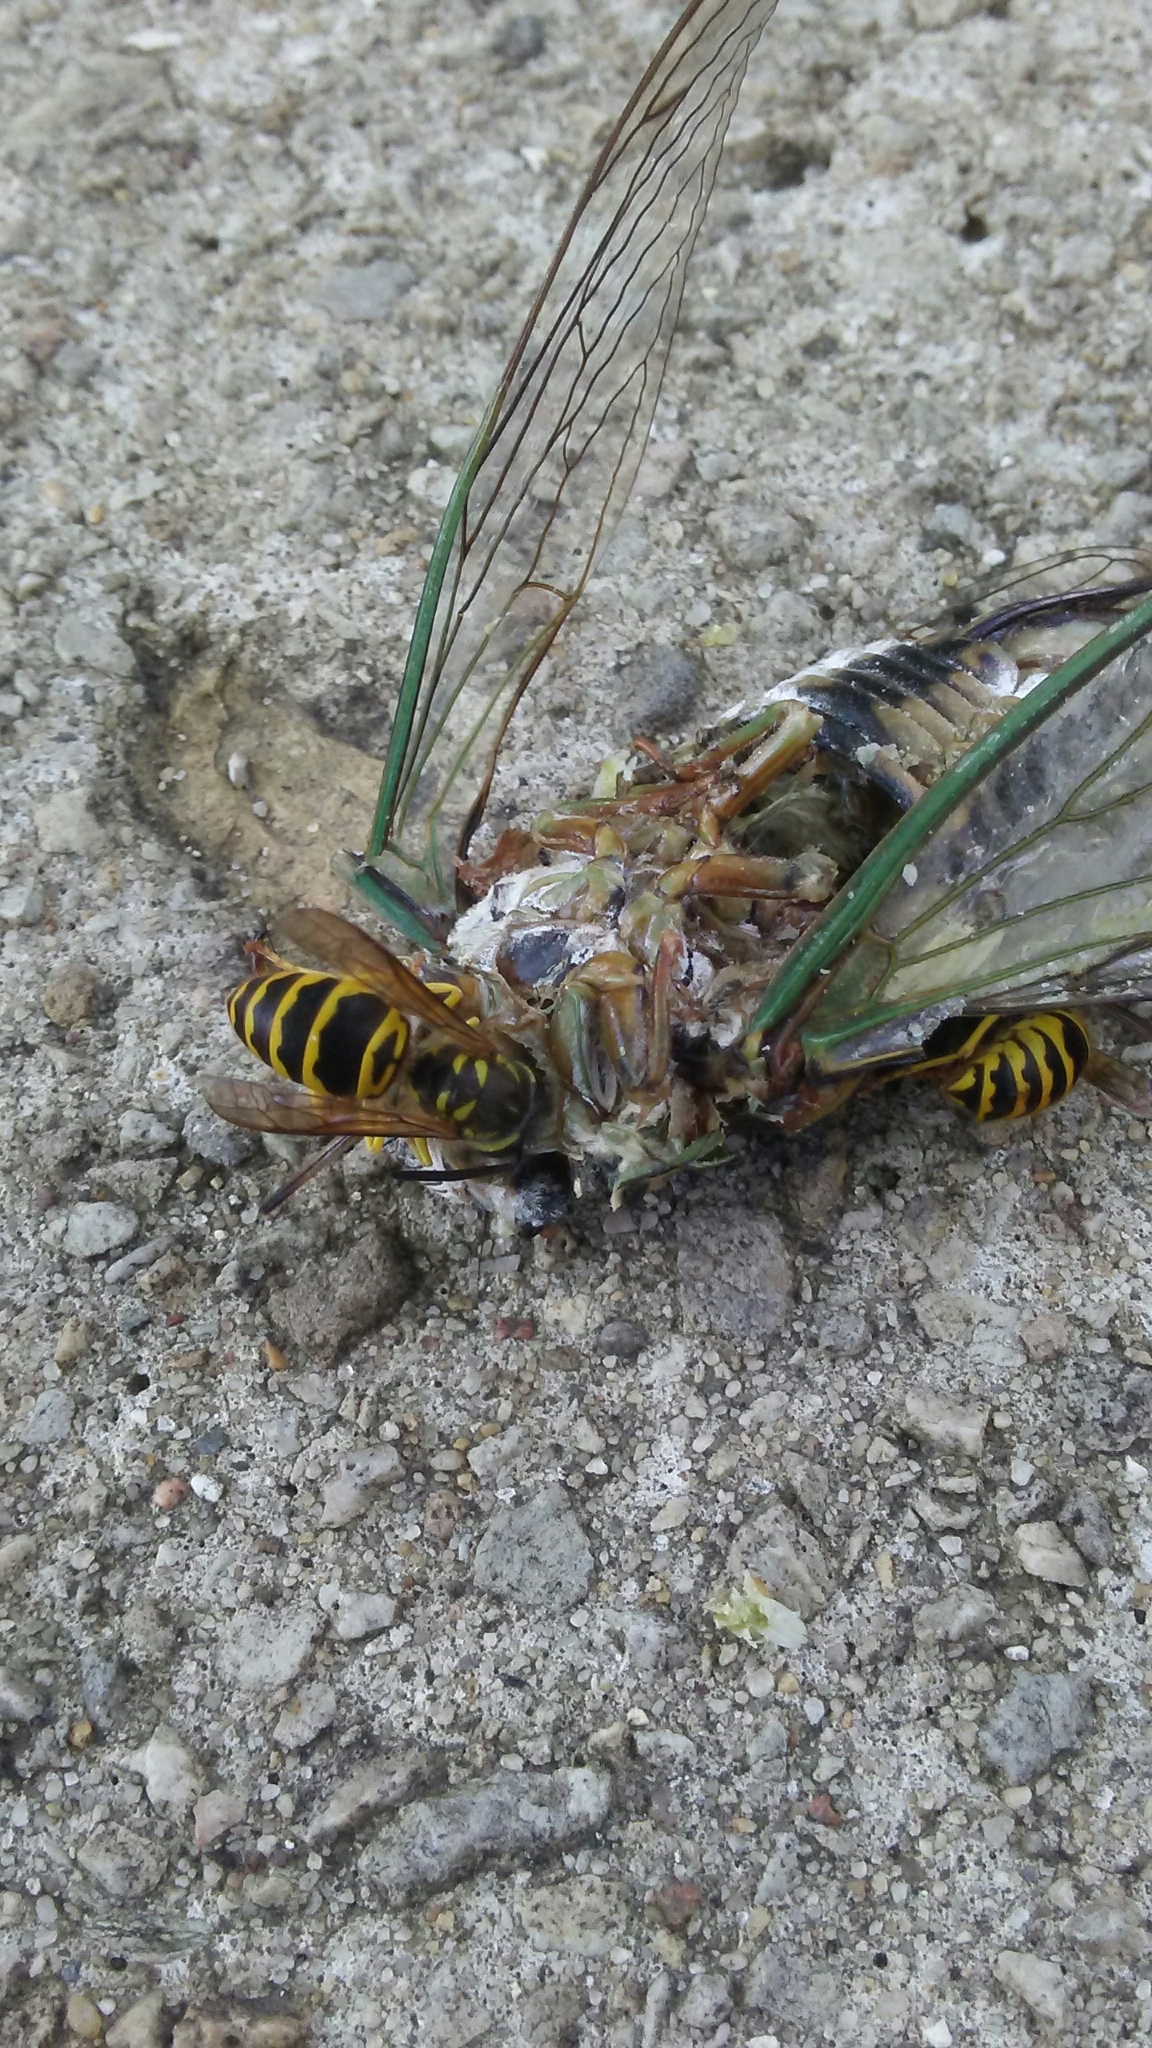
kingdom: Animalia
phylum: Arthropoda
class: Insecta
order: Hymenoptera
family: Vespidae
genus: Vespula
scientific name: Vespula maculifrons
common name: Eastern yellowjacket
